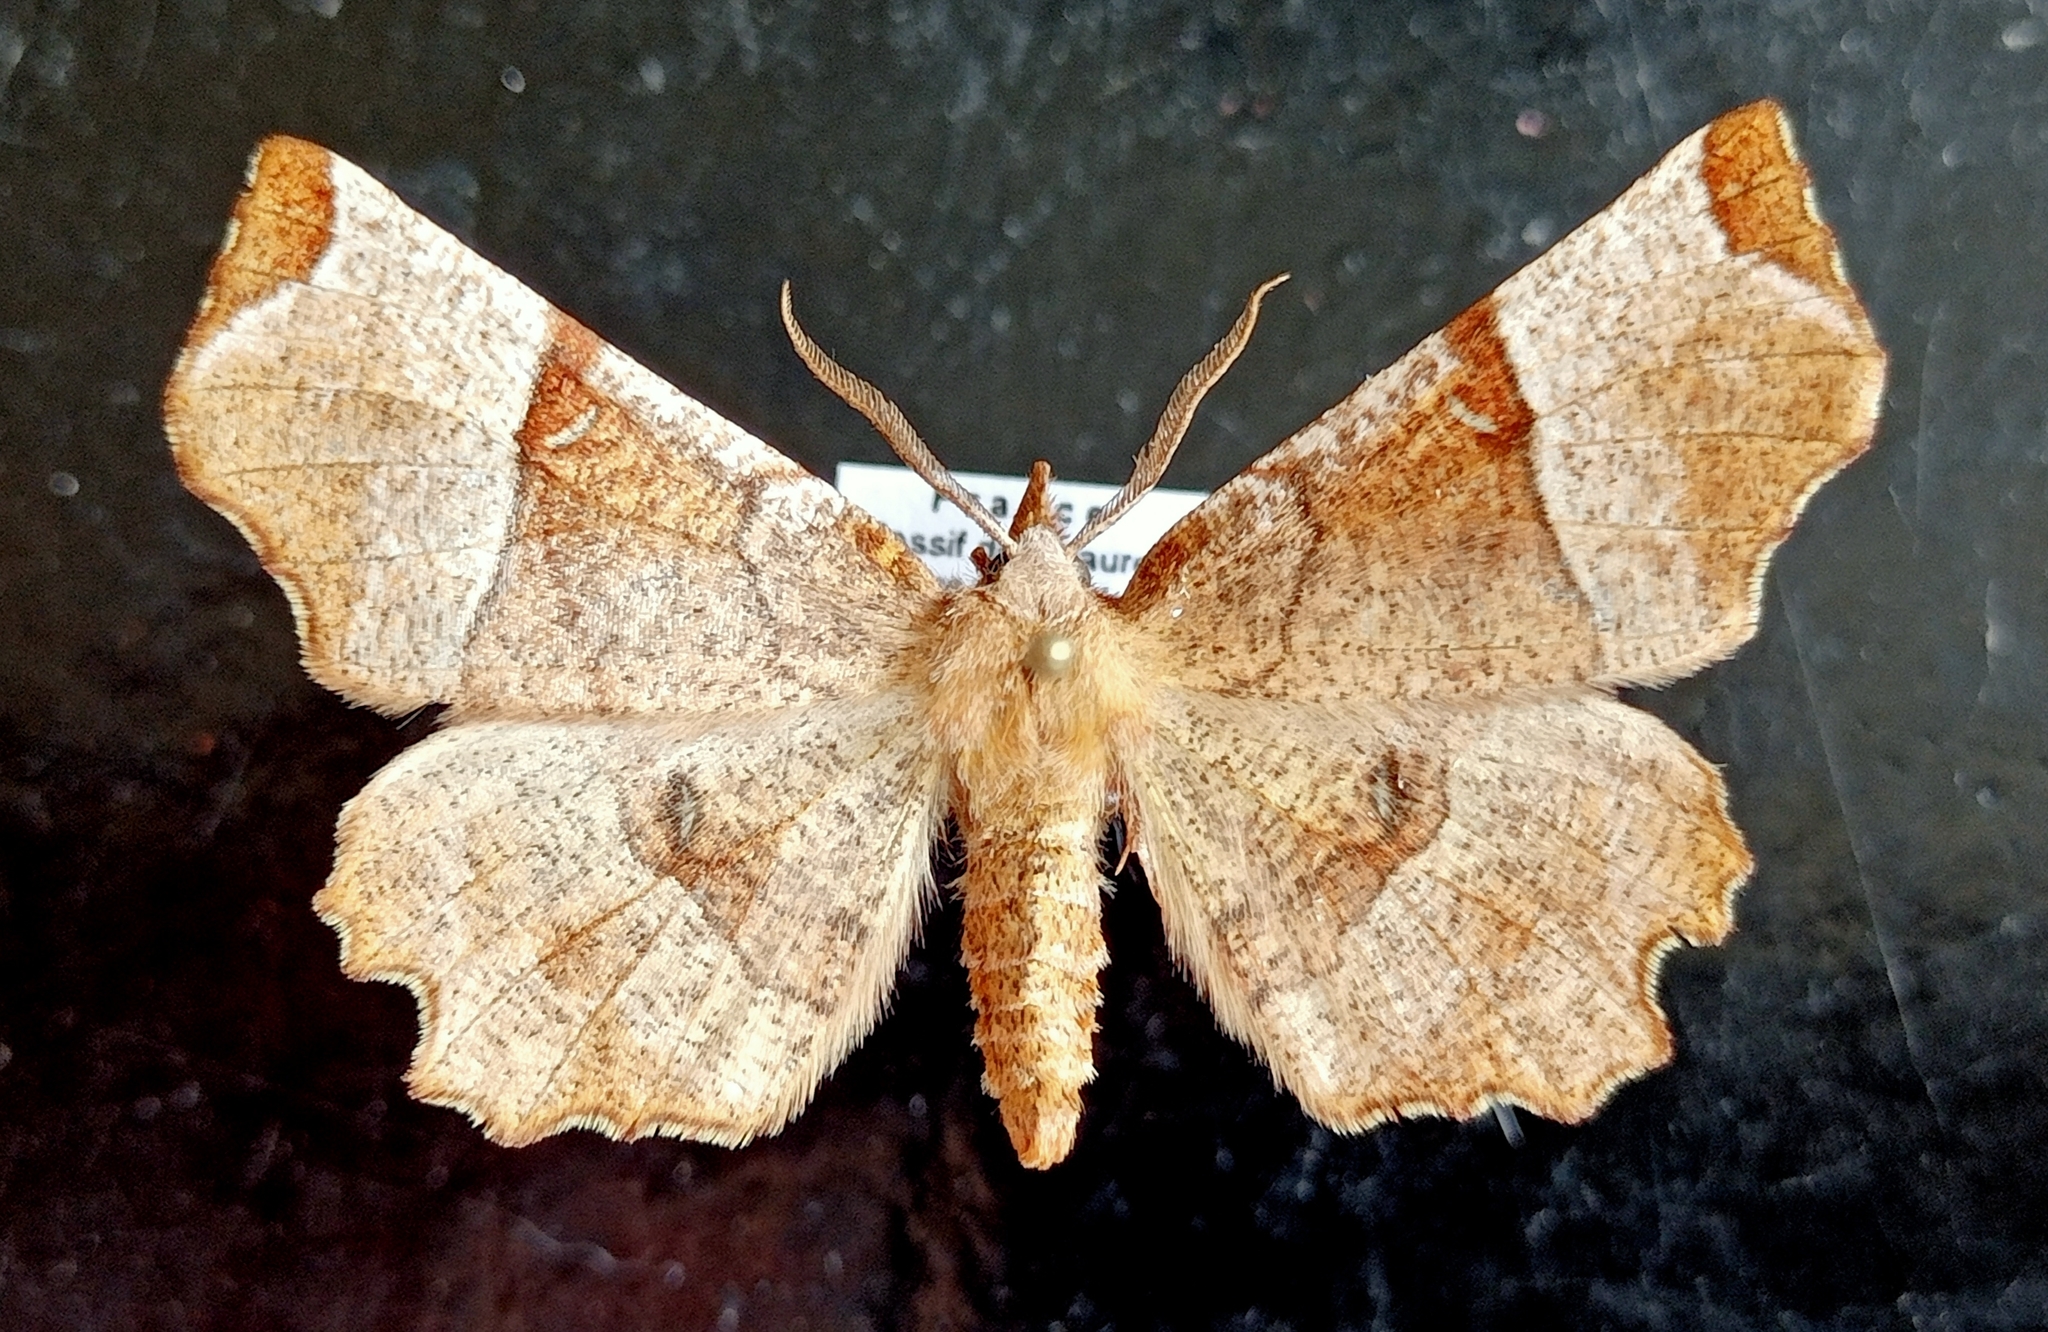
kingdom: Animalia
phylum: Arthropoda
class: Insecta
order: Lepidoptera
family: Geometridae
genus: Selenia
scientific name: Selenia lunularia
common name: Lunar thorn
